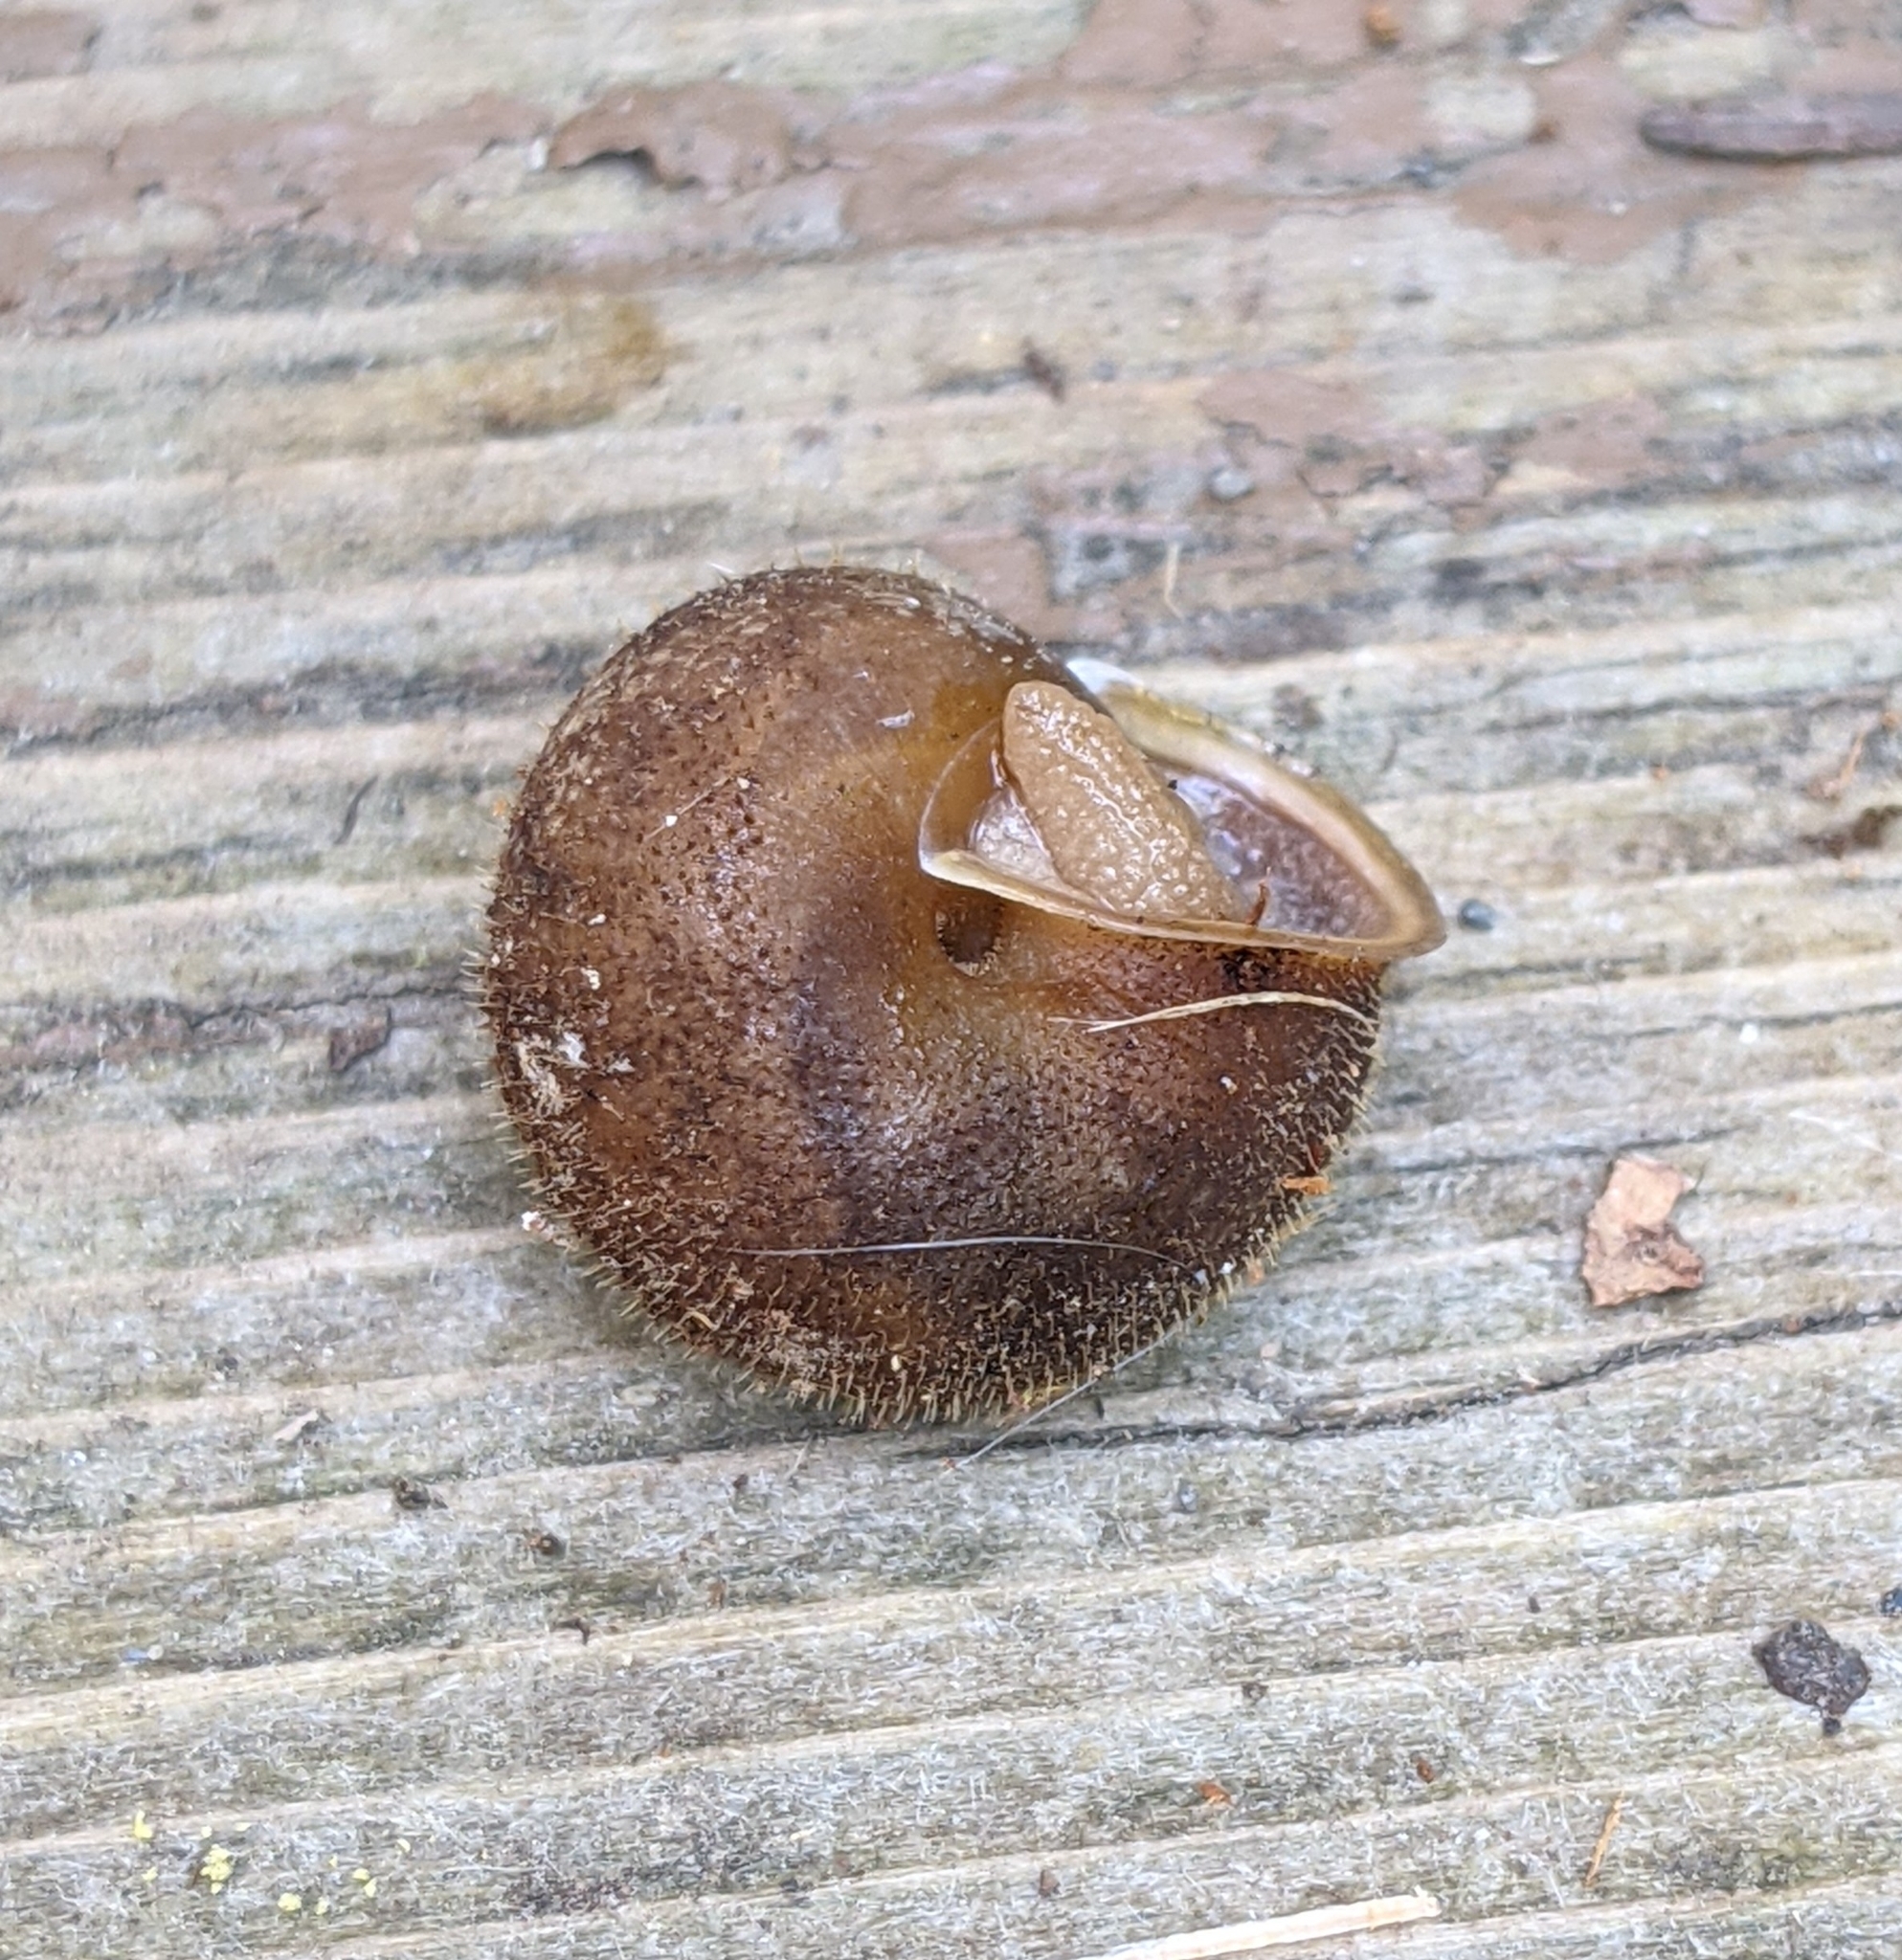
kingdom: Animalia
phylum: Mollusca
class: Gastropoda
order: Stylommatophora
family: Polygyridae
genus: Vespericola
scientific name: Vespericola columbianus
